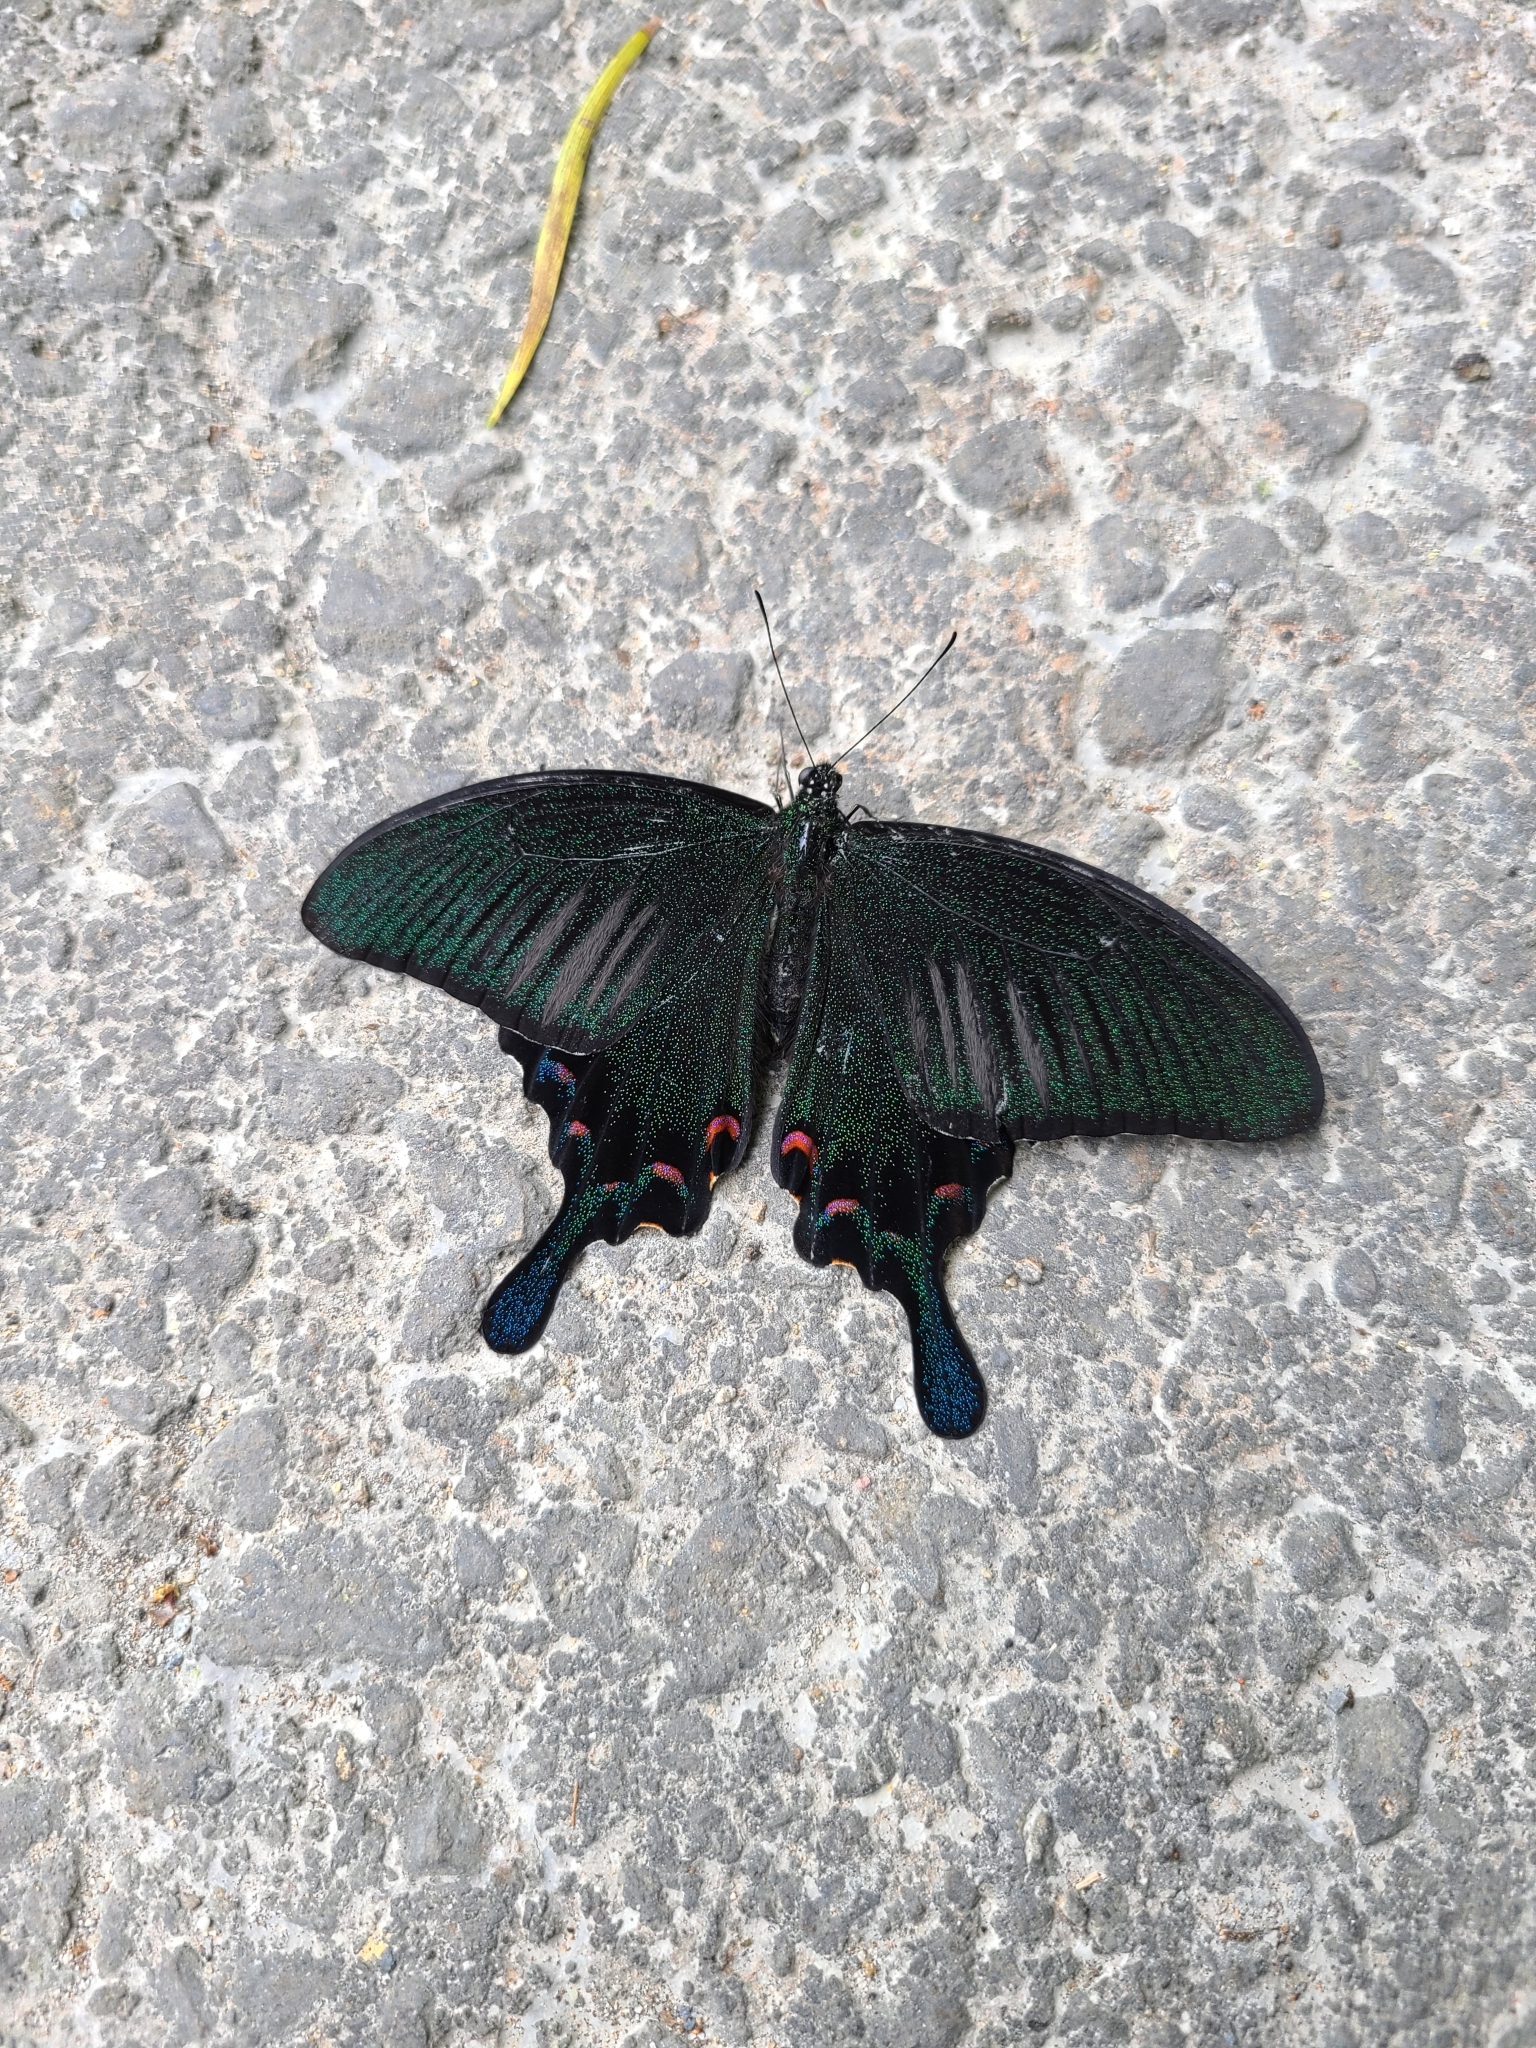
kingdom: Animalia
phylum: Arthropoda
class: Insecta
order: Lepidoptera
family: Papilionidae
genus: Papilio
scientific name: Papilio bianor
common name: Common peacock
